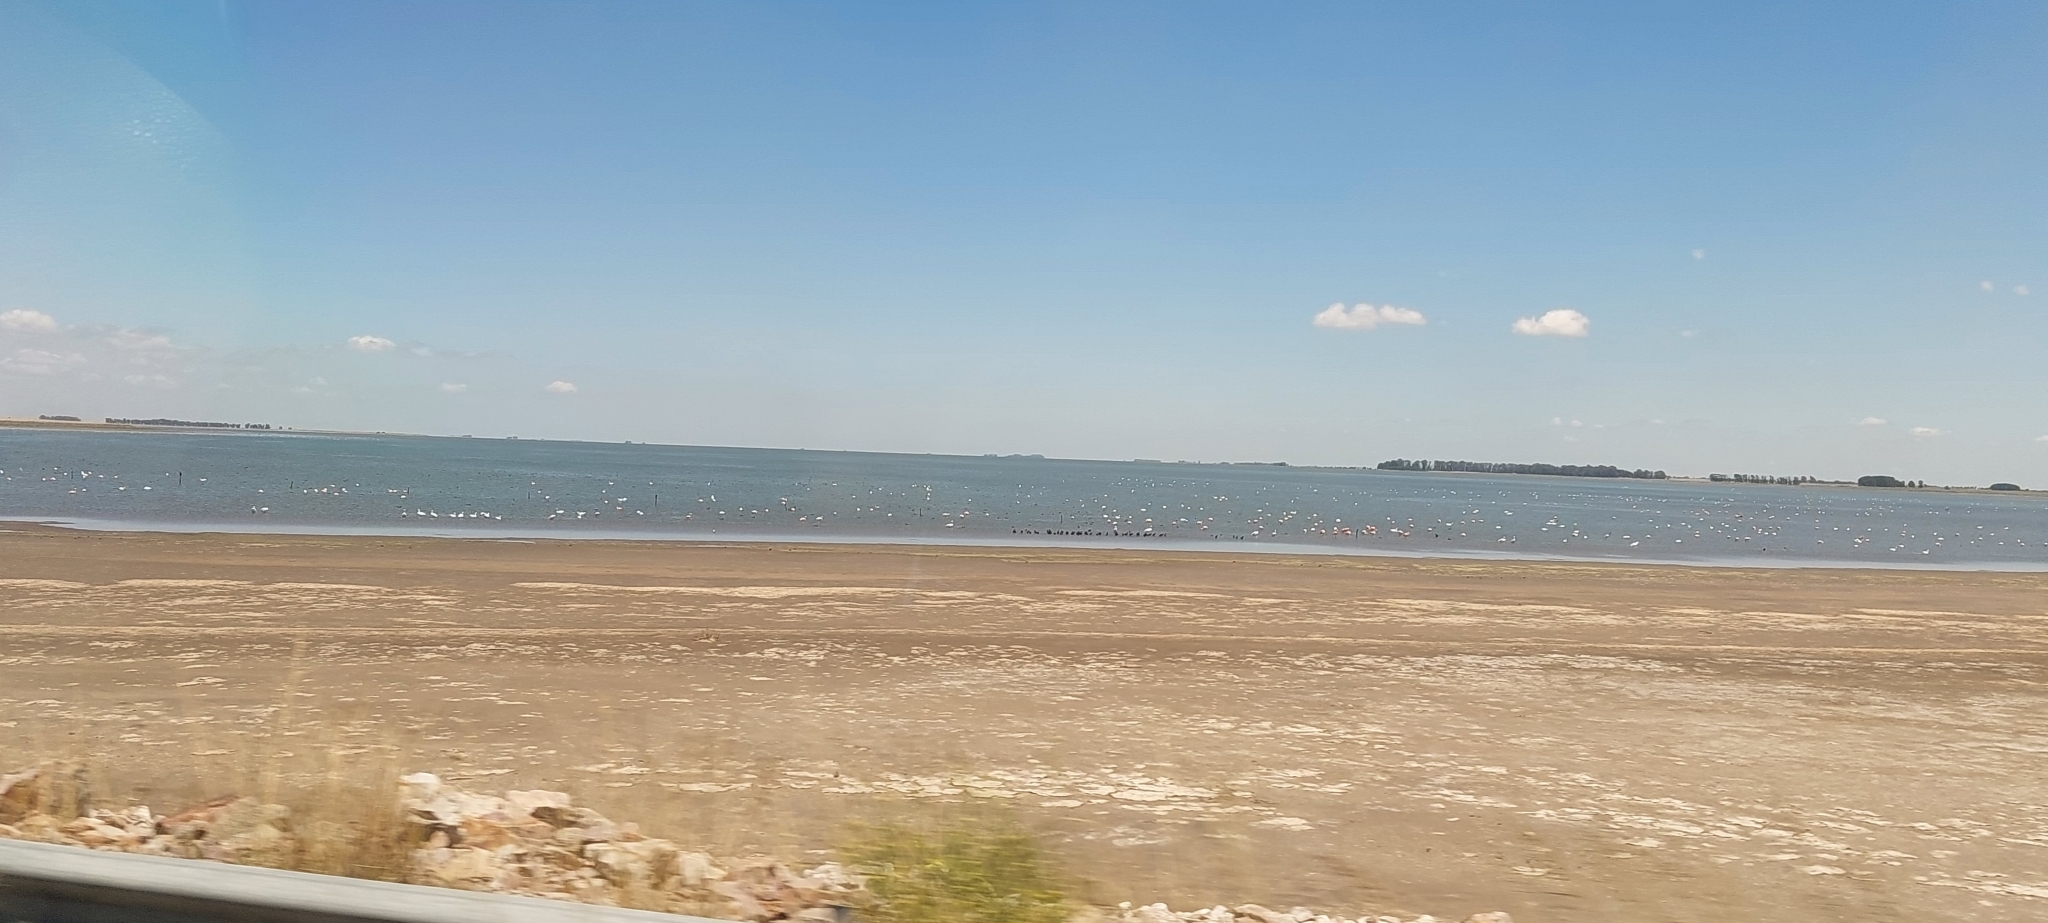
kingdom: Animalia
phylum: Chordata
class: Aves
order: Phoenicopteriformes
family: Phoenicopteridae
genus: Phoenicopterus
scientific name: Phoenicopterus chilensis
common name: Chilean flamingo
